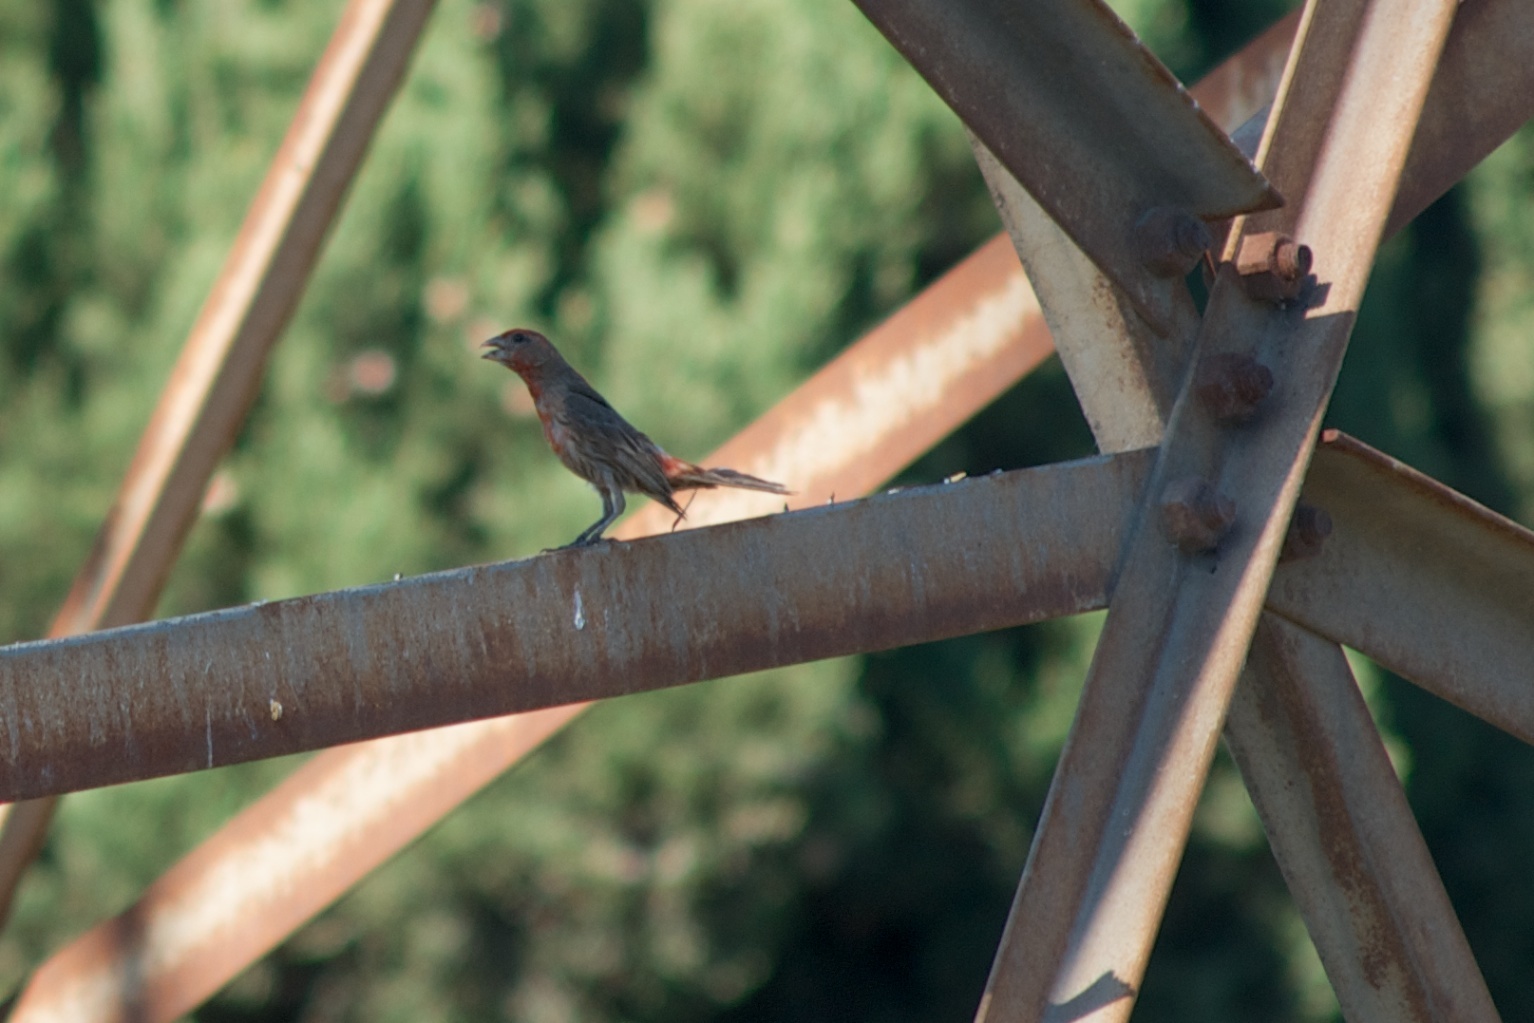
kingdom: Animalia
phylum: Chordata
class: Aves
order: Passeriformes
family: Fringillidae
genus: Haemorhous
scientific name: Haemorhous mexicanus
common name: House finch
